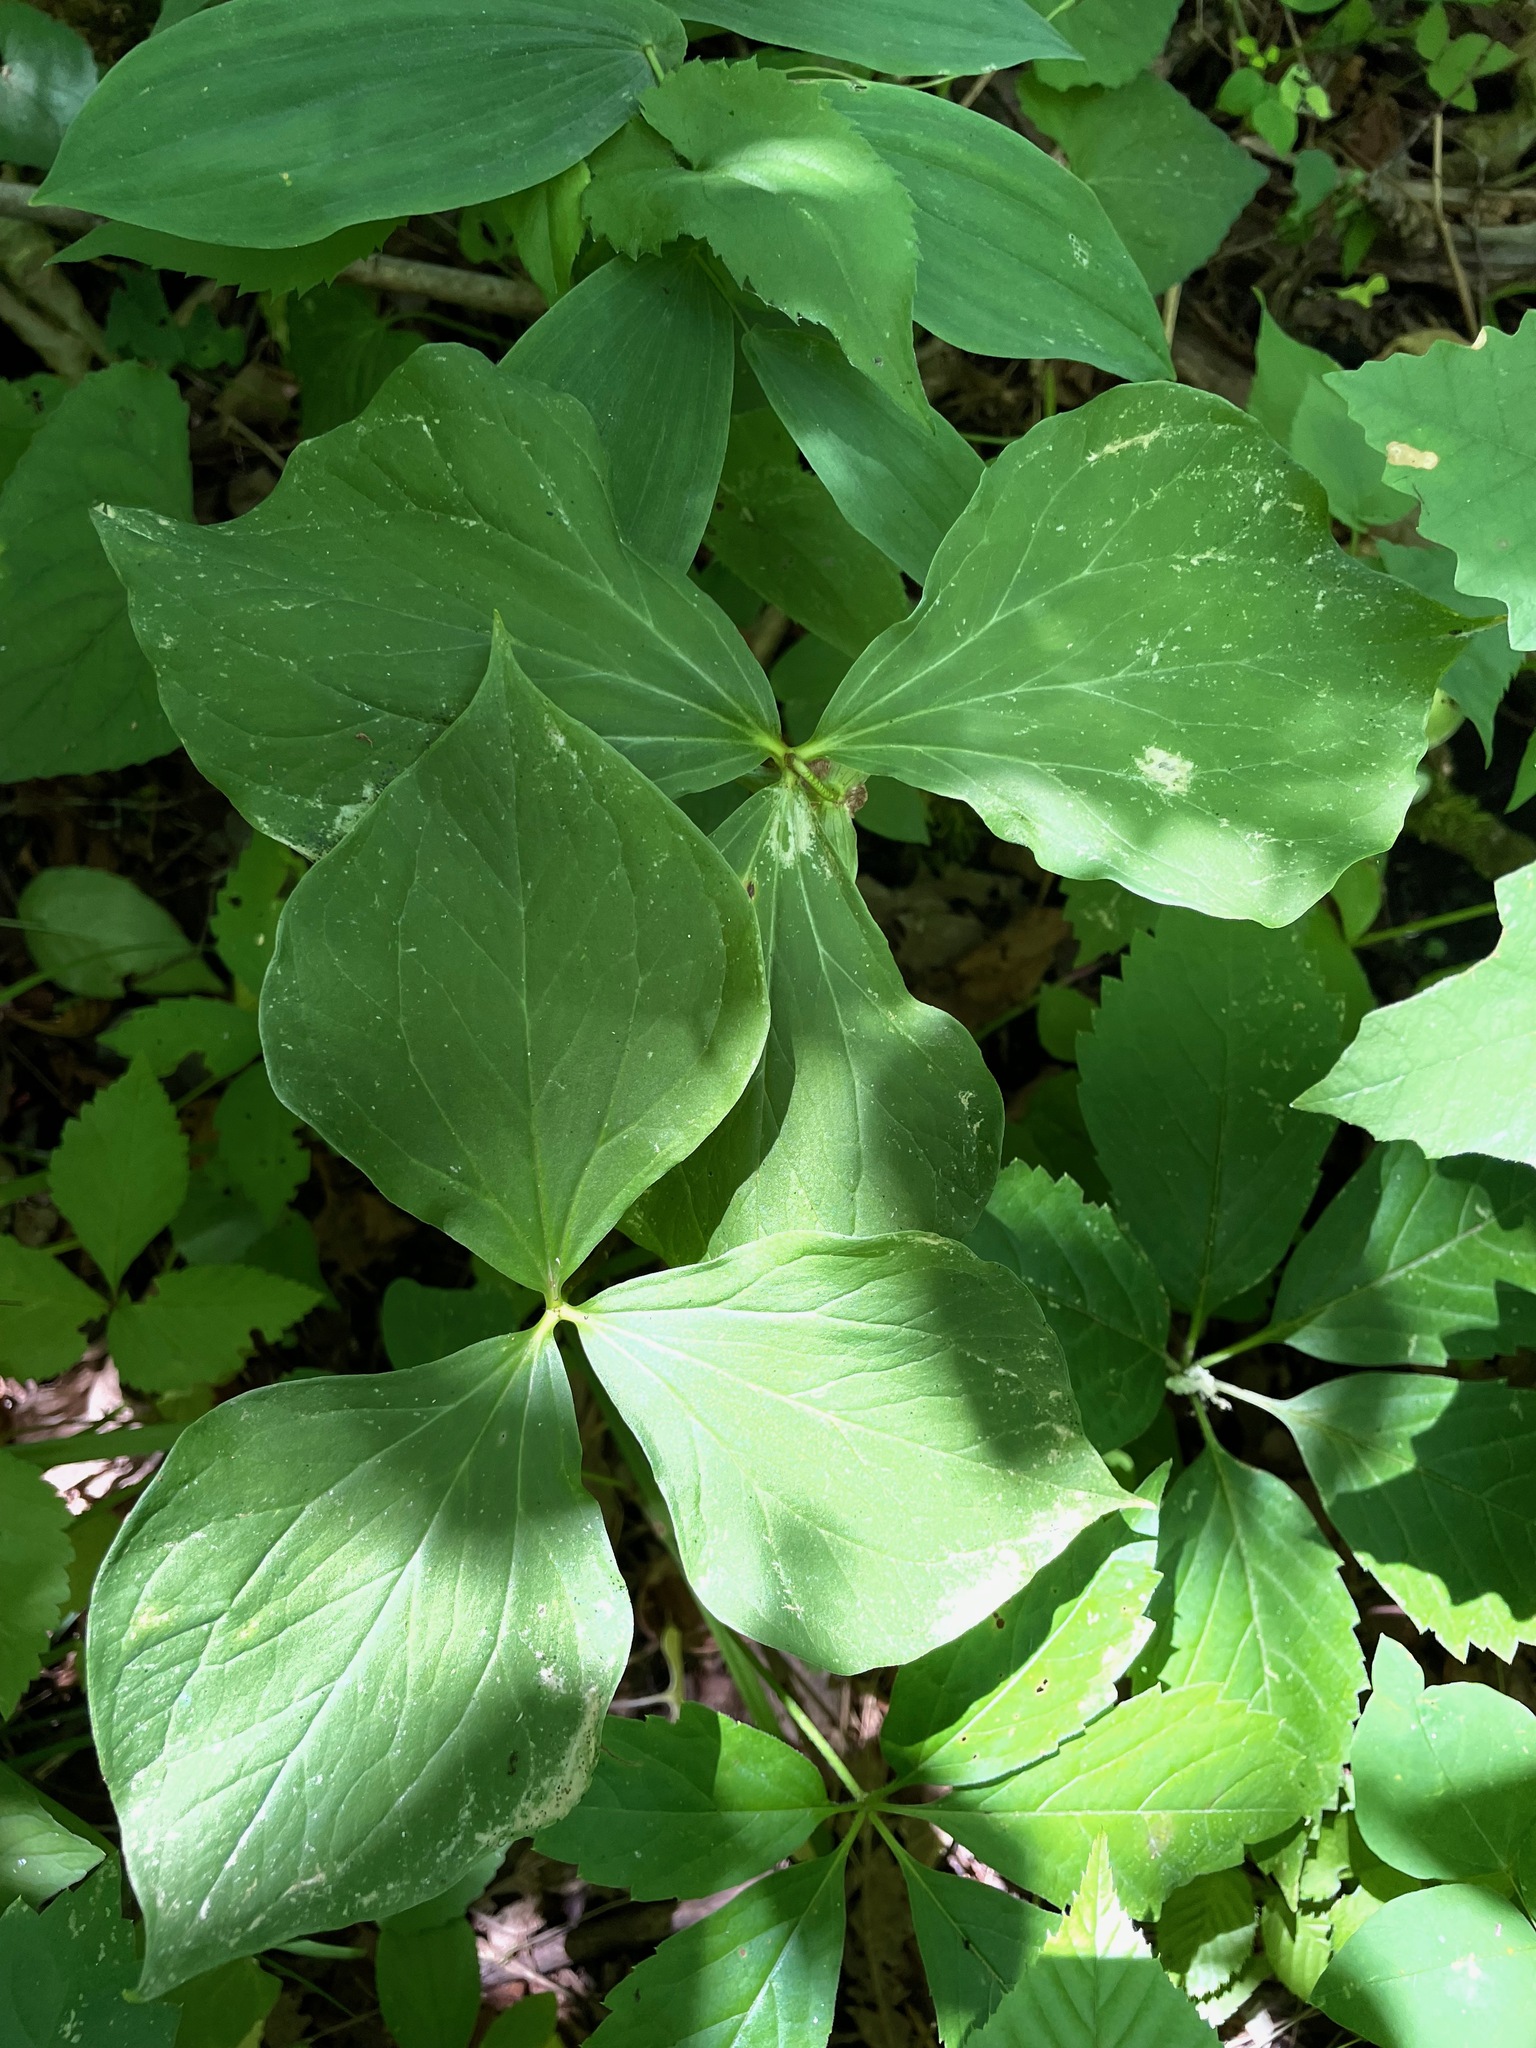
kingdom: Plantae
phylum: Tracheophyta
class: Liliopsida
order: Liliales
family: Melanthiaceae
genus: Trillium
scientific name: Trillium cernuum
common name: Nodding trillium
